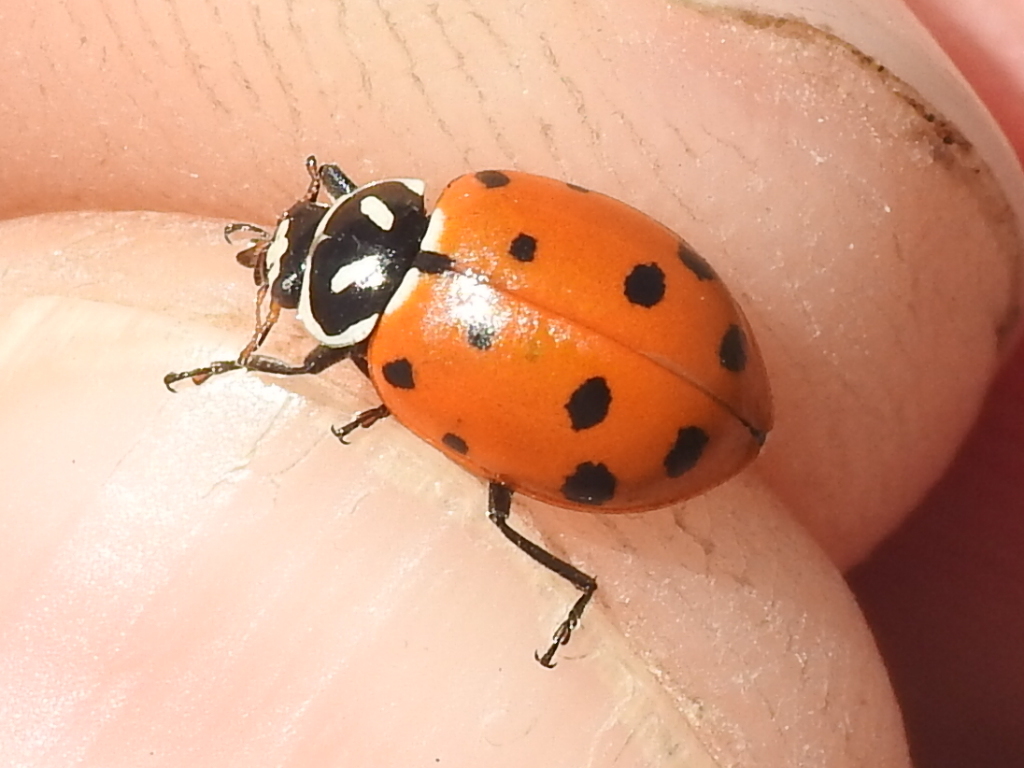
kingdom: Animalia
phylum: Arthropoda
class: Insecta
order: Coleoptera
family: Coccinellidae
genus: Hippodamia
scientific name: Hippodamia convergens
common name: Convergent lady beetle
